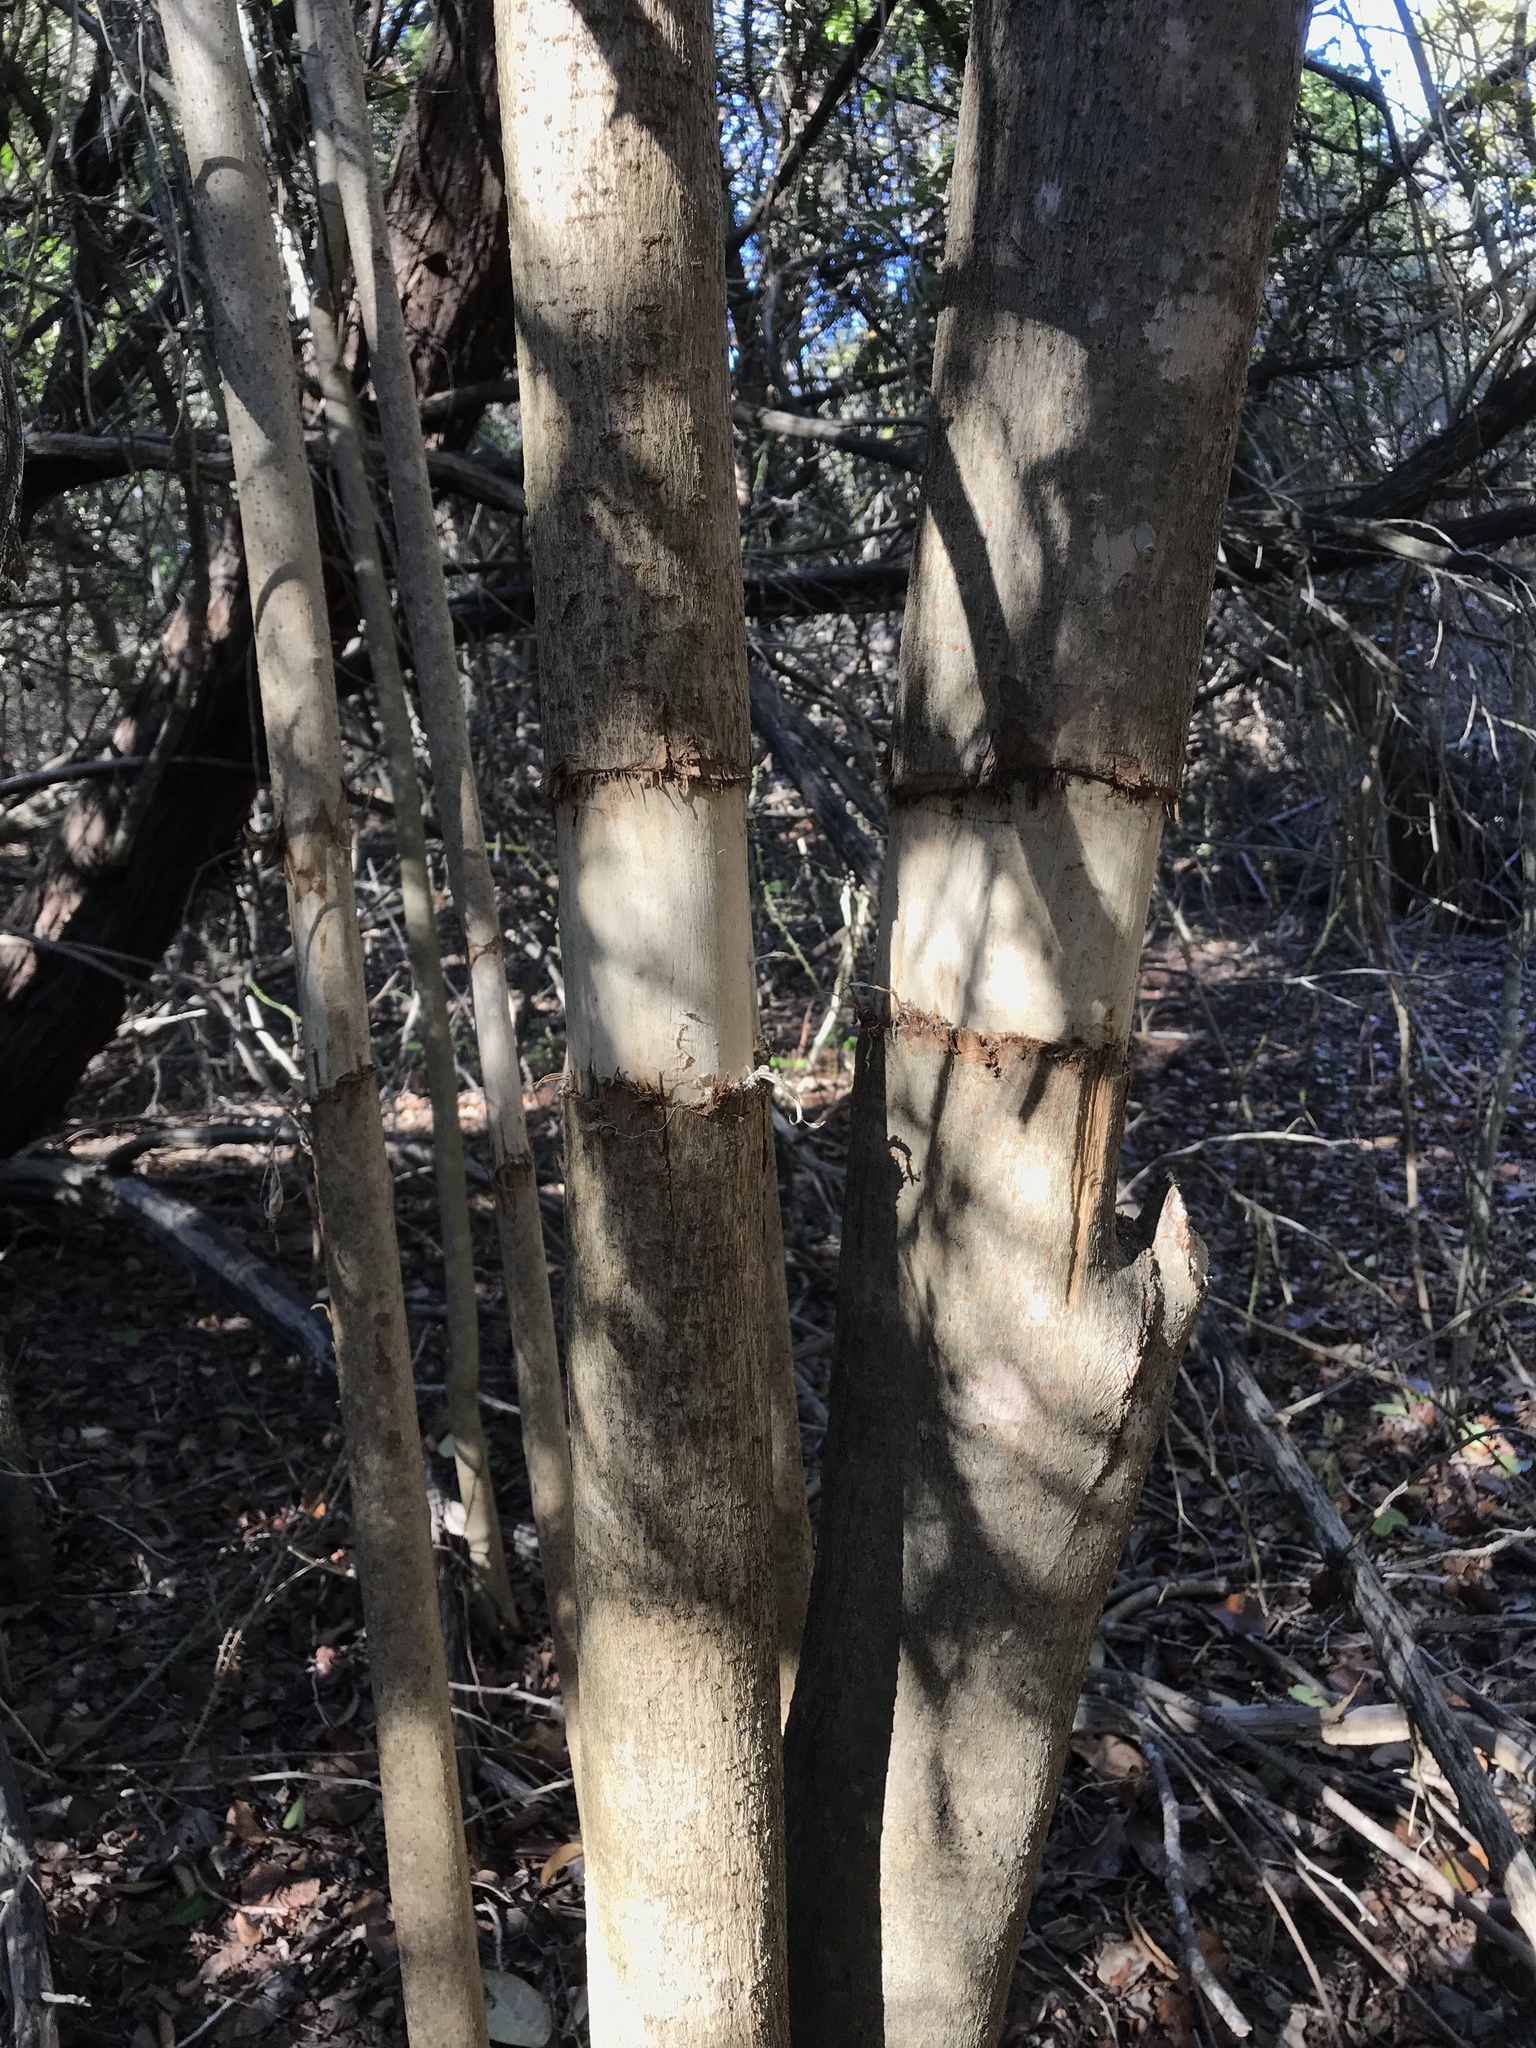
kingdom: Plantae
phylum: Tracheophyta
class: Magnoliopsida
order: Lamiales
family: Oleaceae
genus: Ligustrum
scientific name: Ligustrum lucidum
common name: Glossy privet
